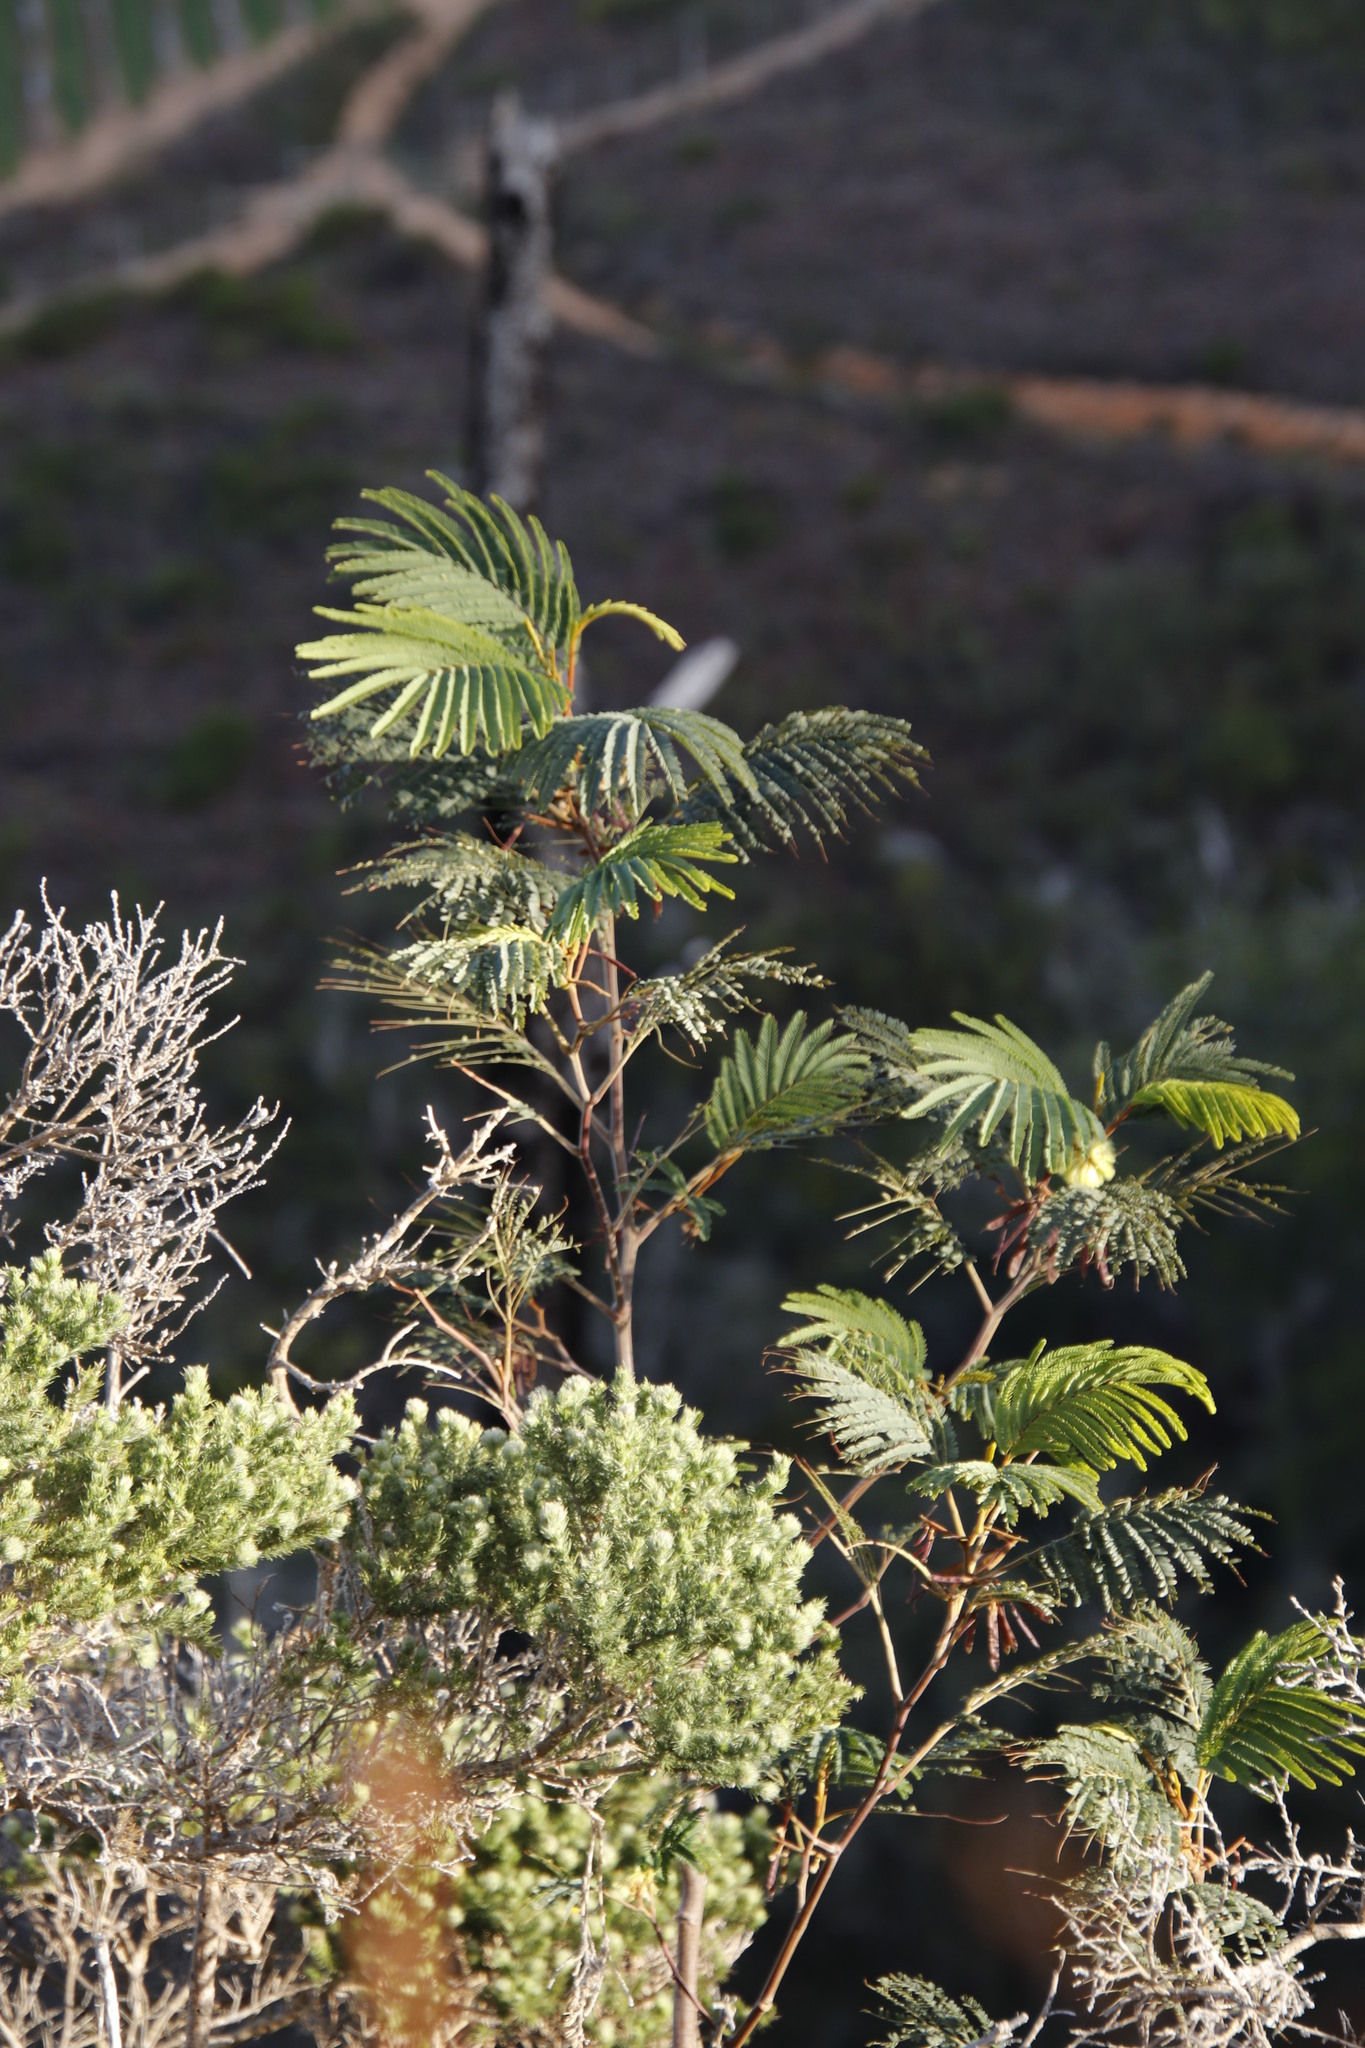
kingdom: Plantae
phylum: Tracheophyta
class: Magnoliopsida
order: Fabales
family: Fabaceae
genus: Paraserianthes
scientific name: Paraserianthes lophantha
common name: Plume albizia
